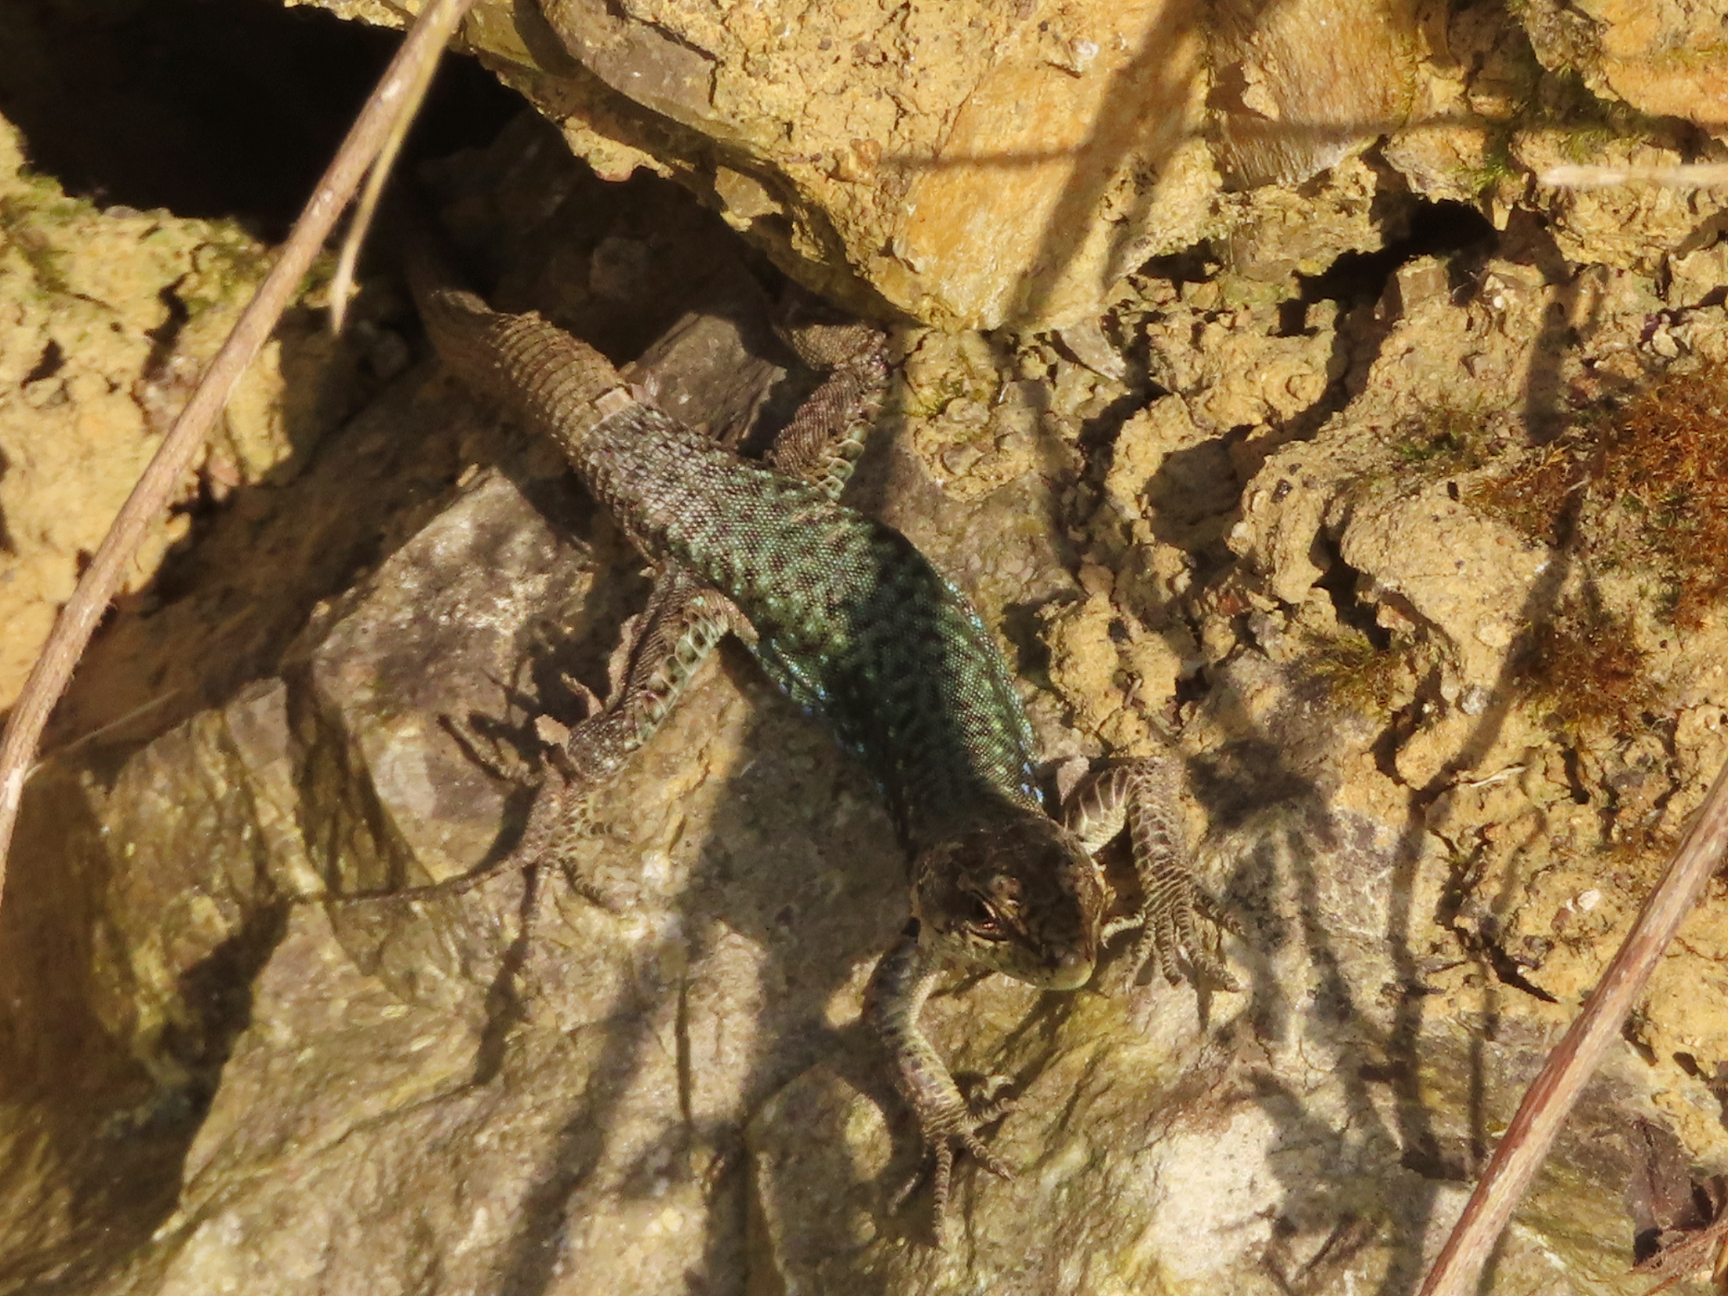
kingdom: Animalia
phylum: Chordata
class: Squamata
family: Lacertidae
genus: Darevskia
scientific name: Darevskia bithynica
